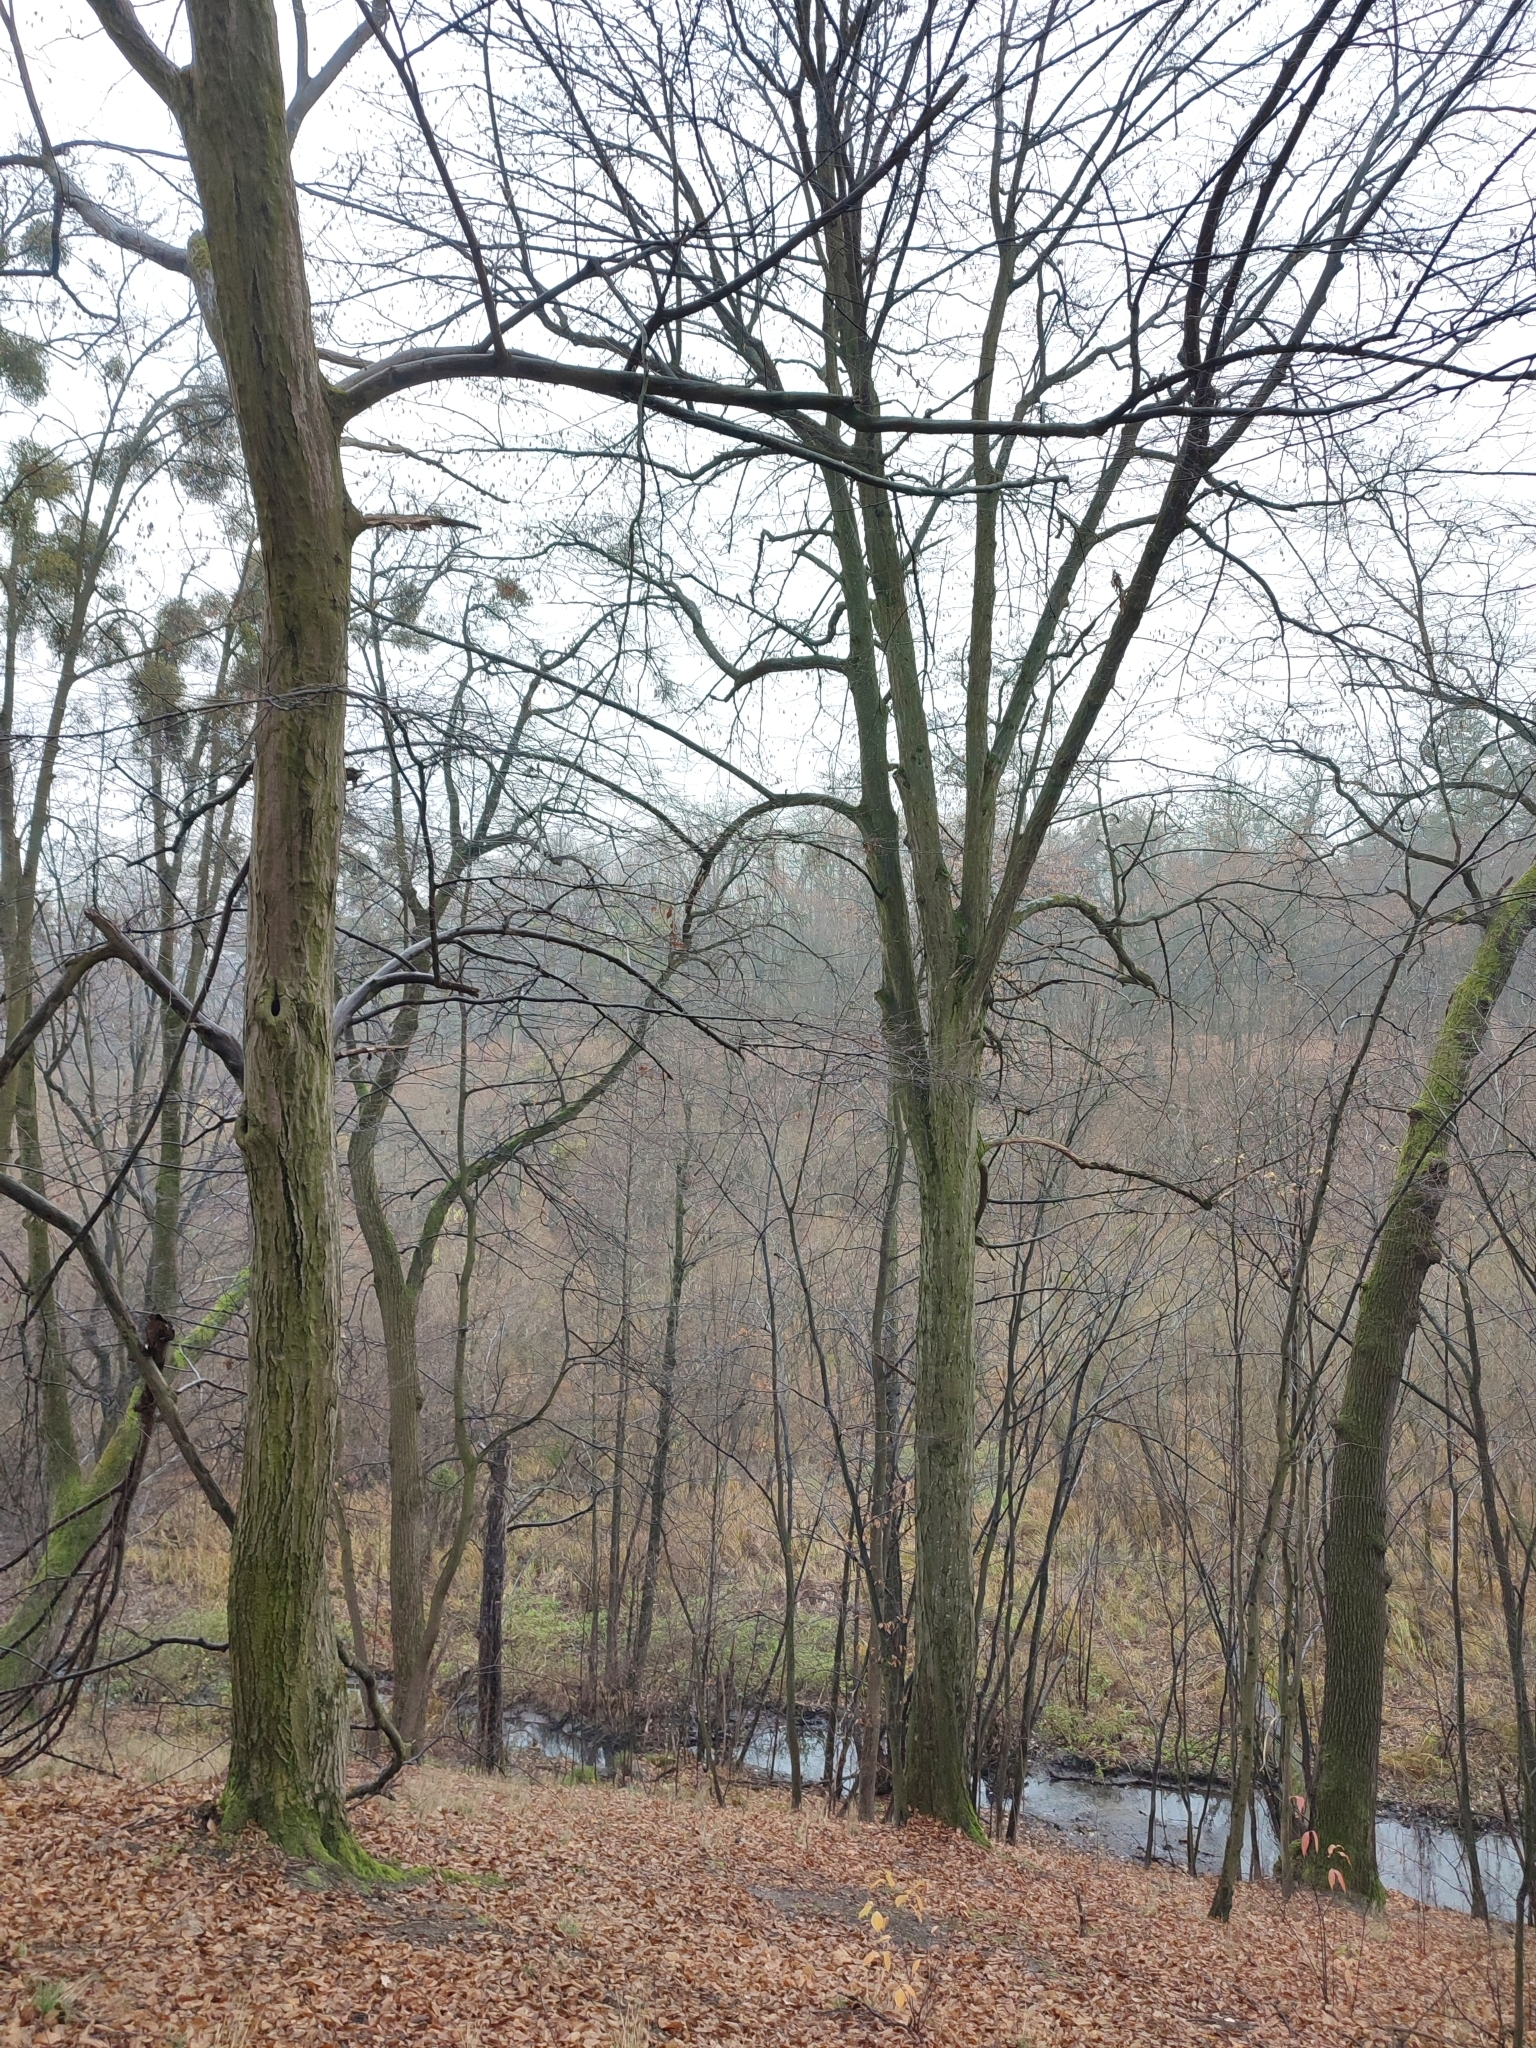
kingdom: Plantae
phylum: Tracheophyta
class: Magnoliopsida
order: Fagales
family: Betulaceae
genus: Carpinus
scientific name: Carpinus betulus
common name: Hornbeam
